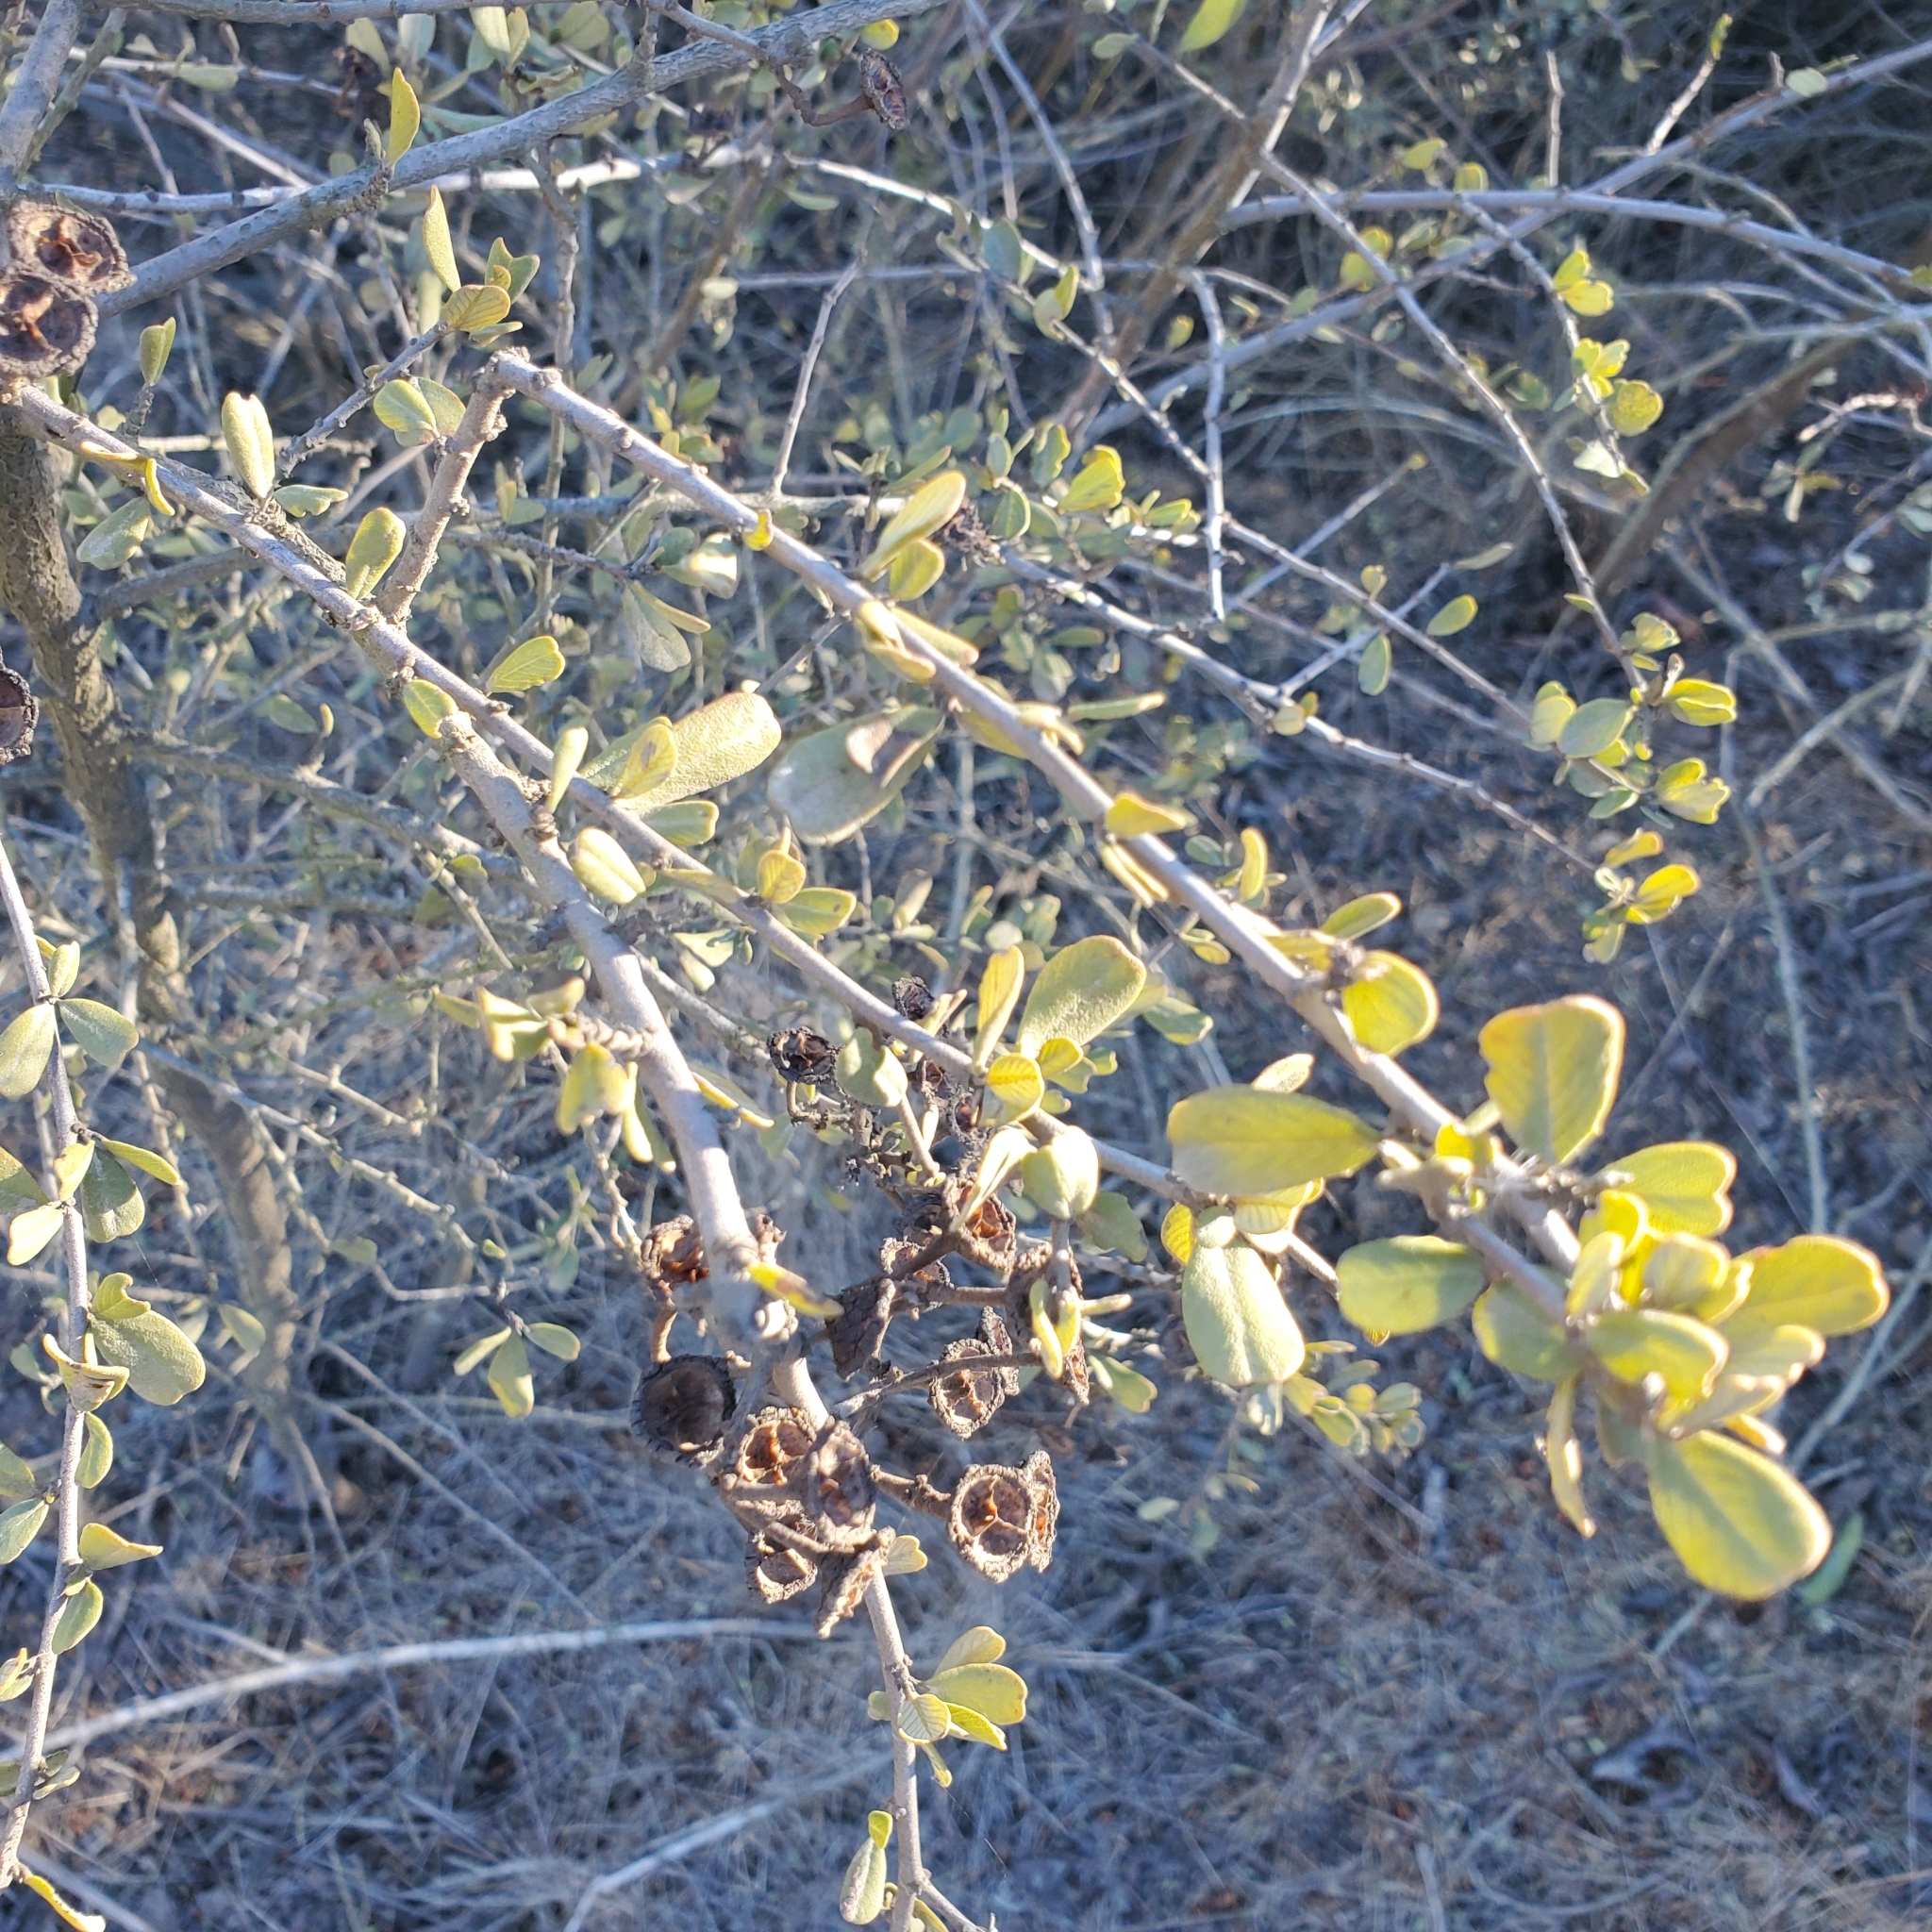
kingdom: Plantae
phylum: Tracheophyta
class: Magnoliopsida
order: Rosales
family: Rhamnaceae
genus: Ceanothus
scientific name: Ceanothus megacarpus
